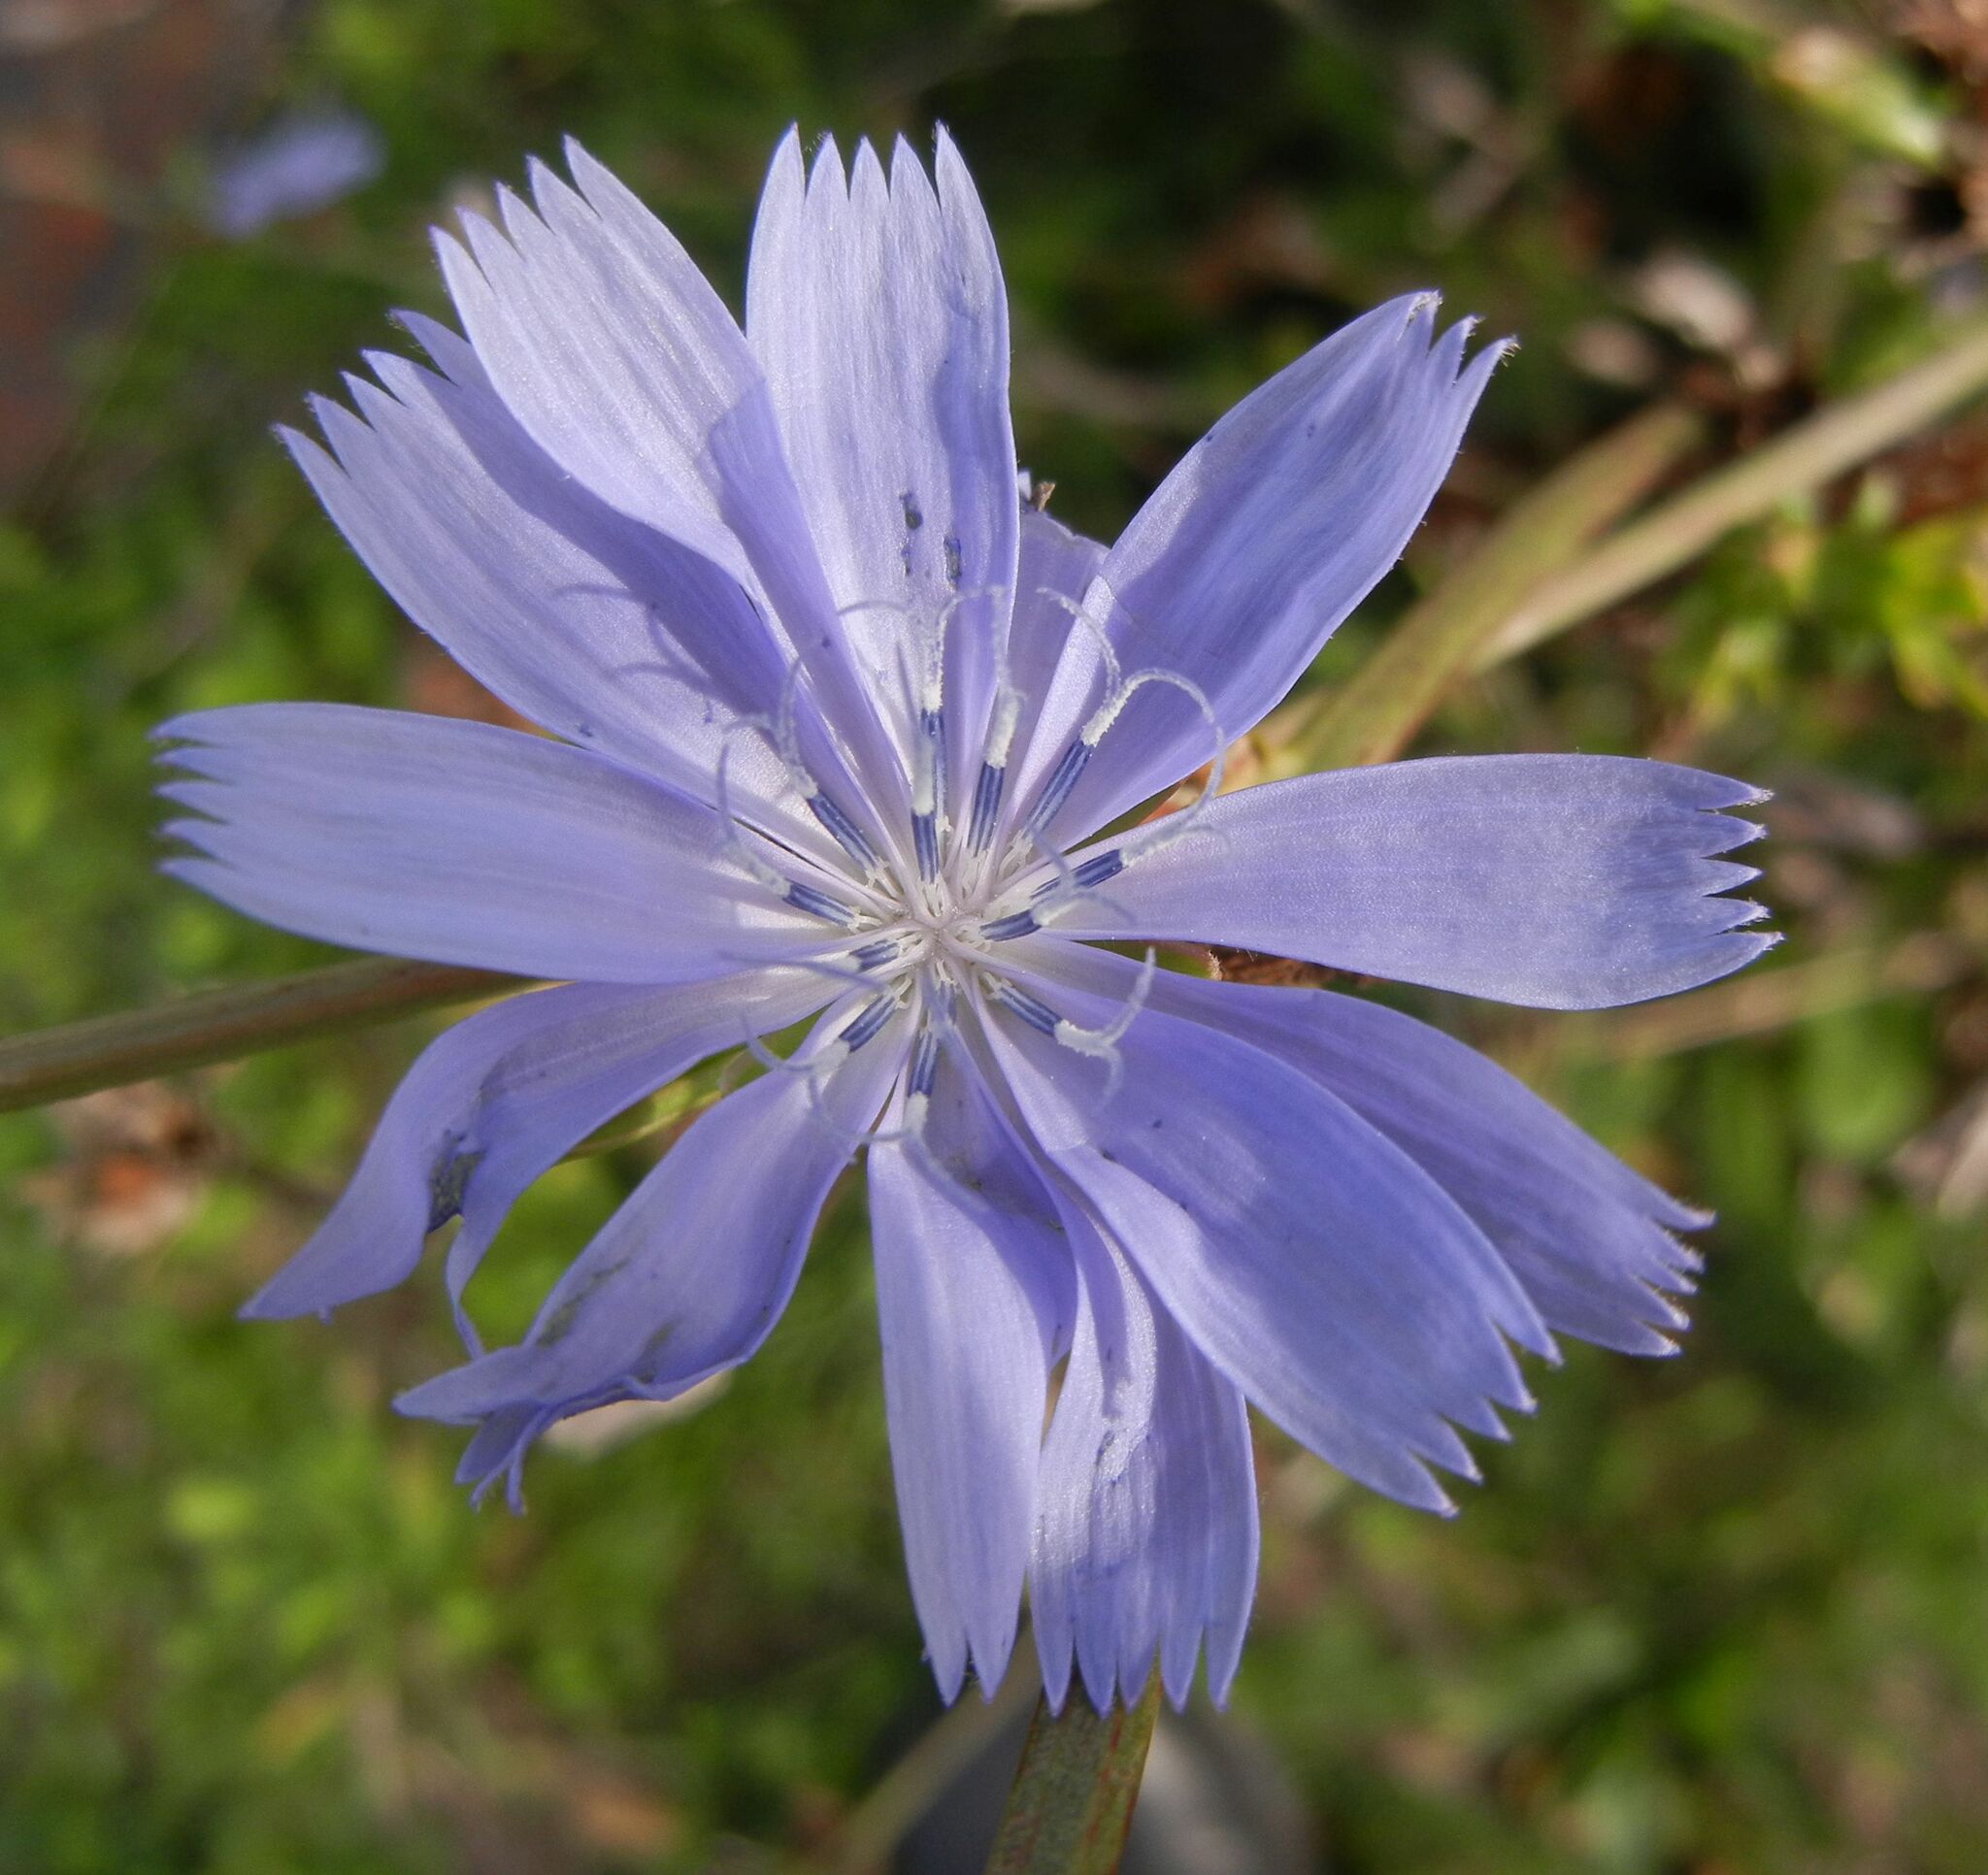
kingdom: Plantae
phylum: Tracheophyta
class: Magnoliopsida
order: Asterales
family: Asteraceae
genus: Cichorium
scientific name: Cichorium intybus
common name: Chicory
